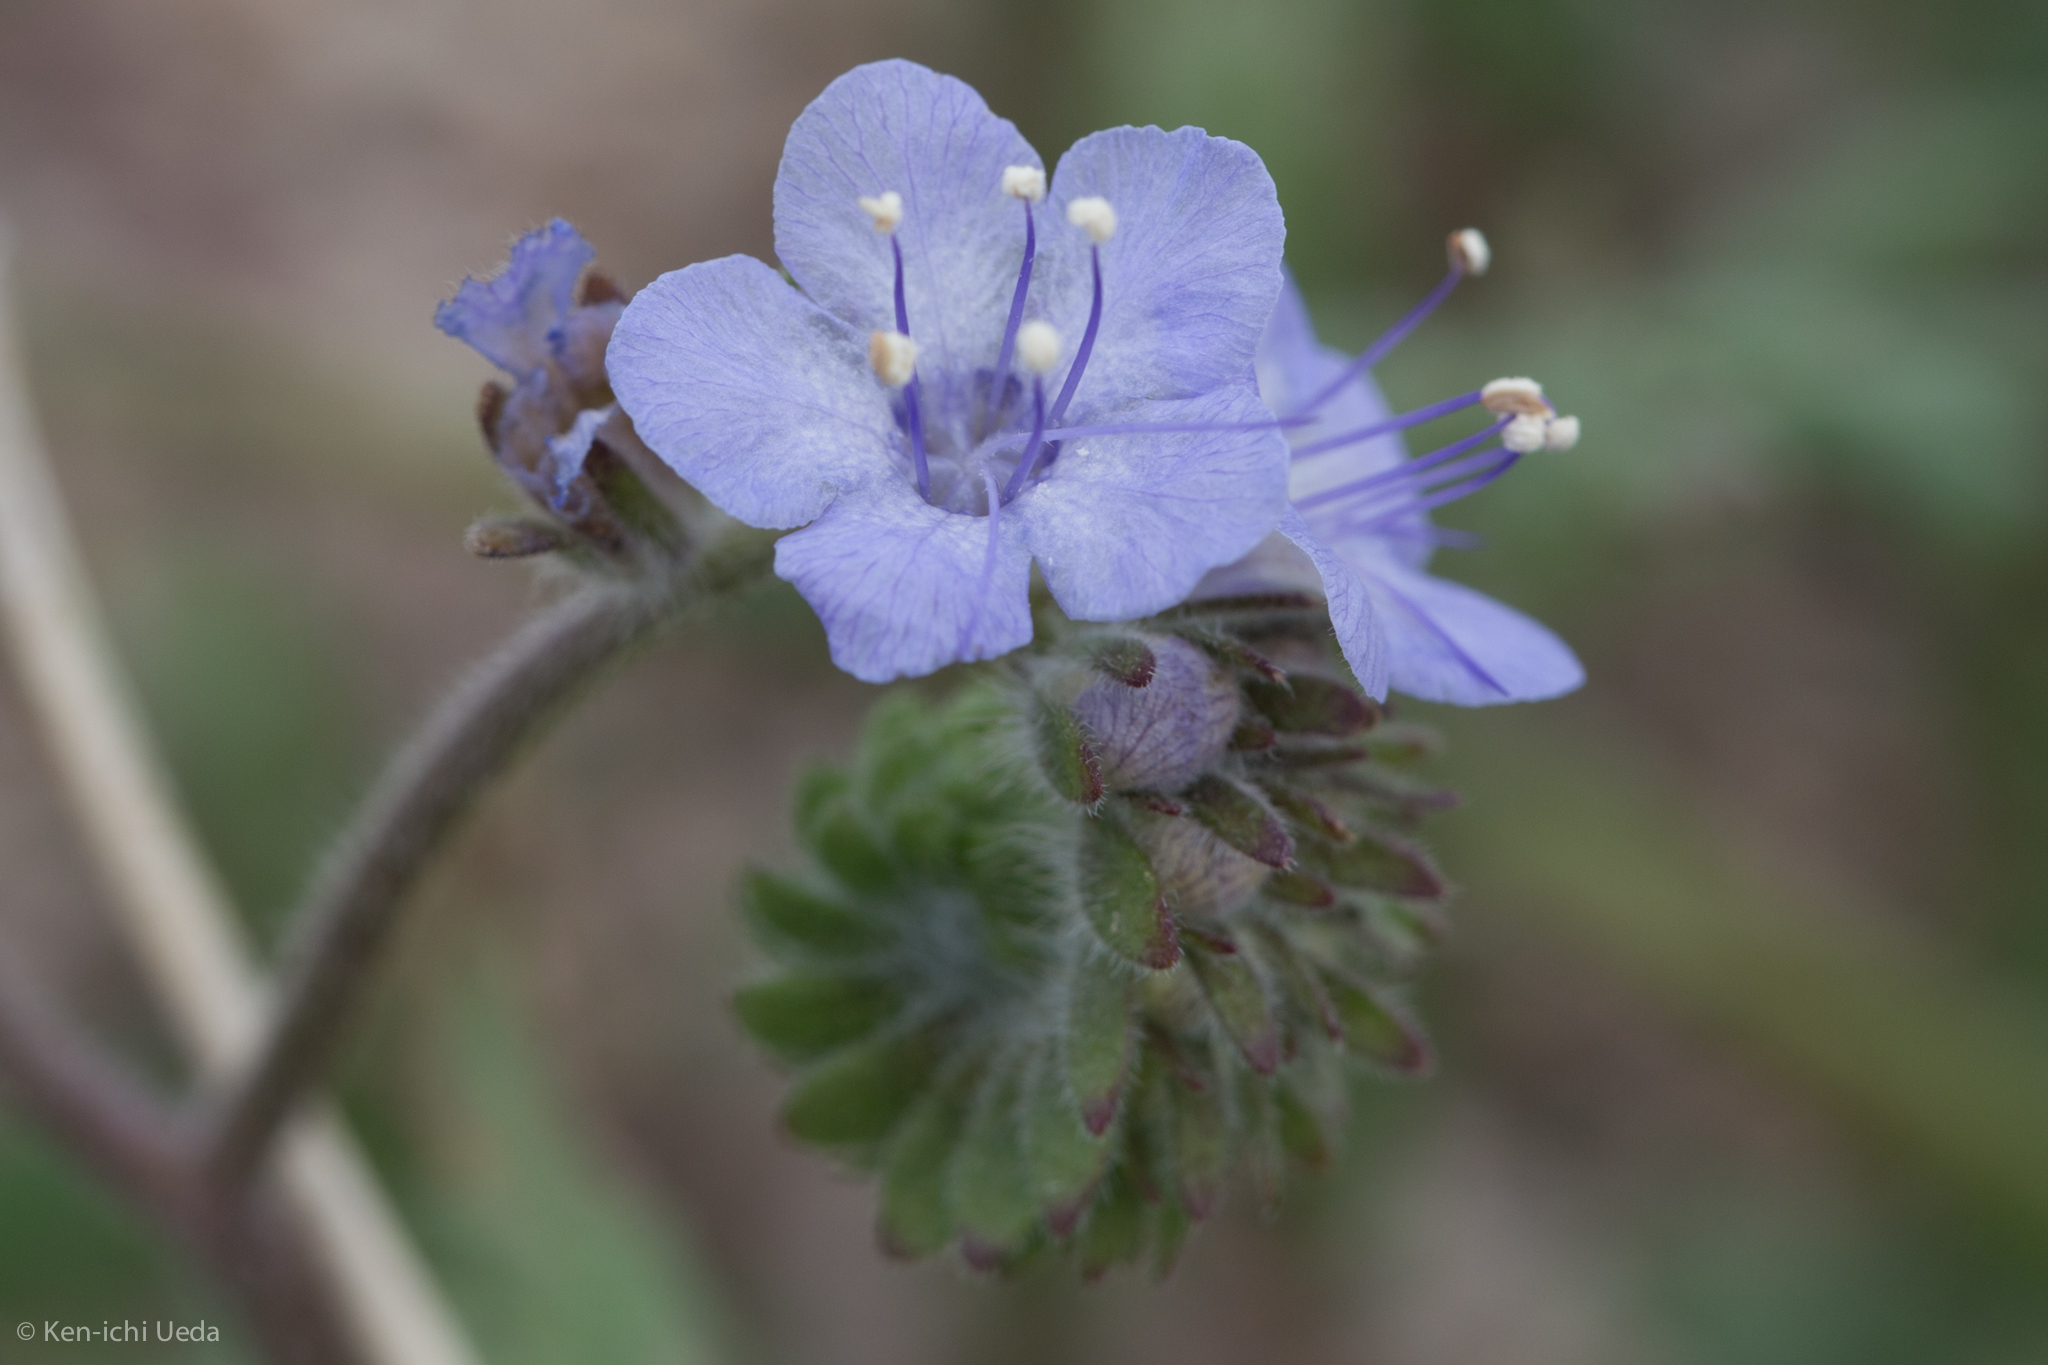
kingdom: Plantae
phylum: Tracheophyta
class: Magnoliopsida
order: Boraginales
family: Hydrophyllaceae
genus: Phacelia
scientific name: Phacelia distans
